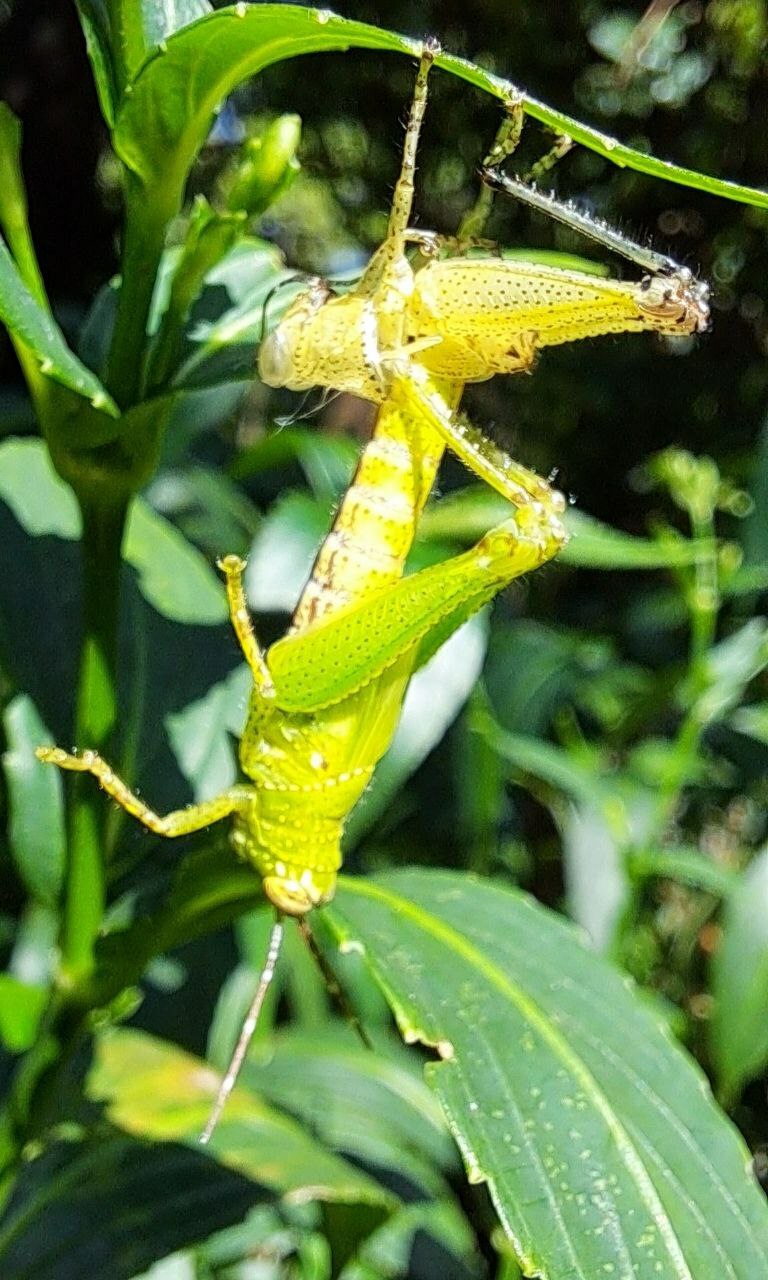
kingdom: Animalia
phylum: Arthropoda
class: Insecta
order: Orthoptera
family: Acrididae
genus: Xenocatantops
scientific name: Xenocatantops humile
